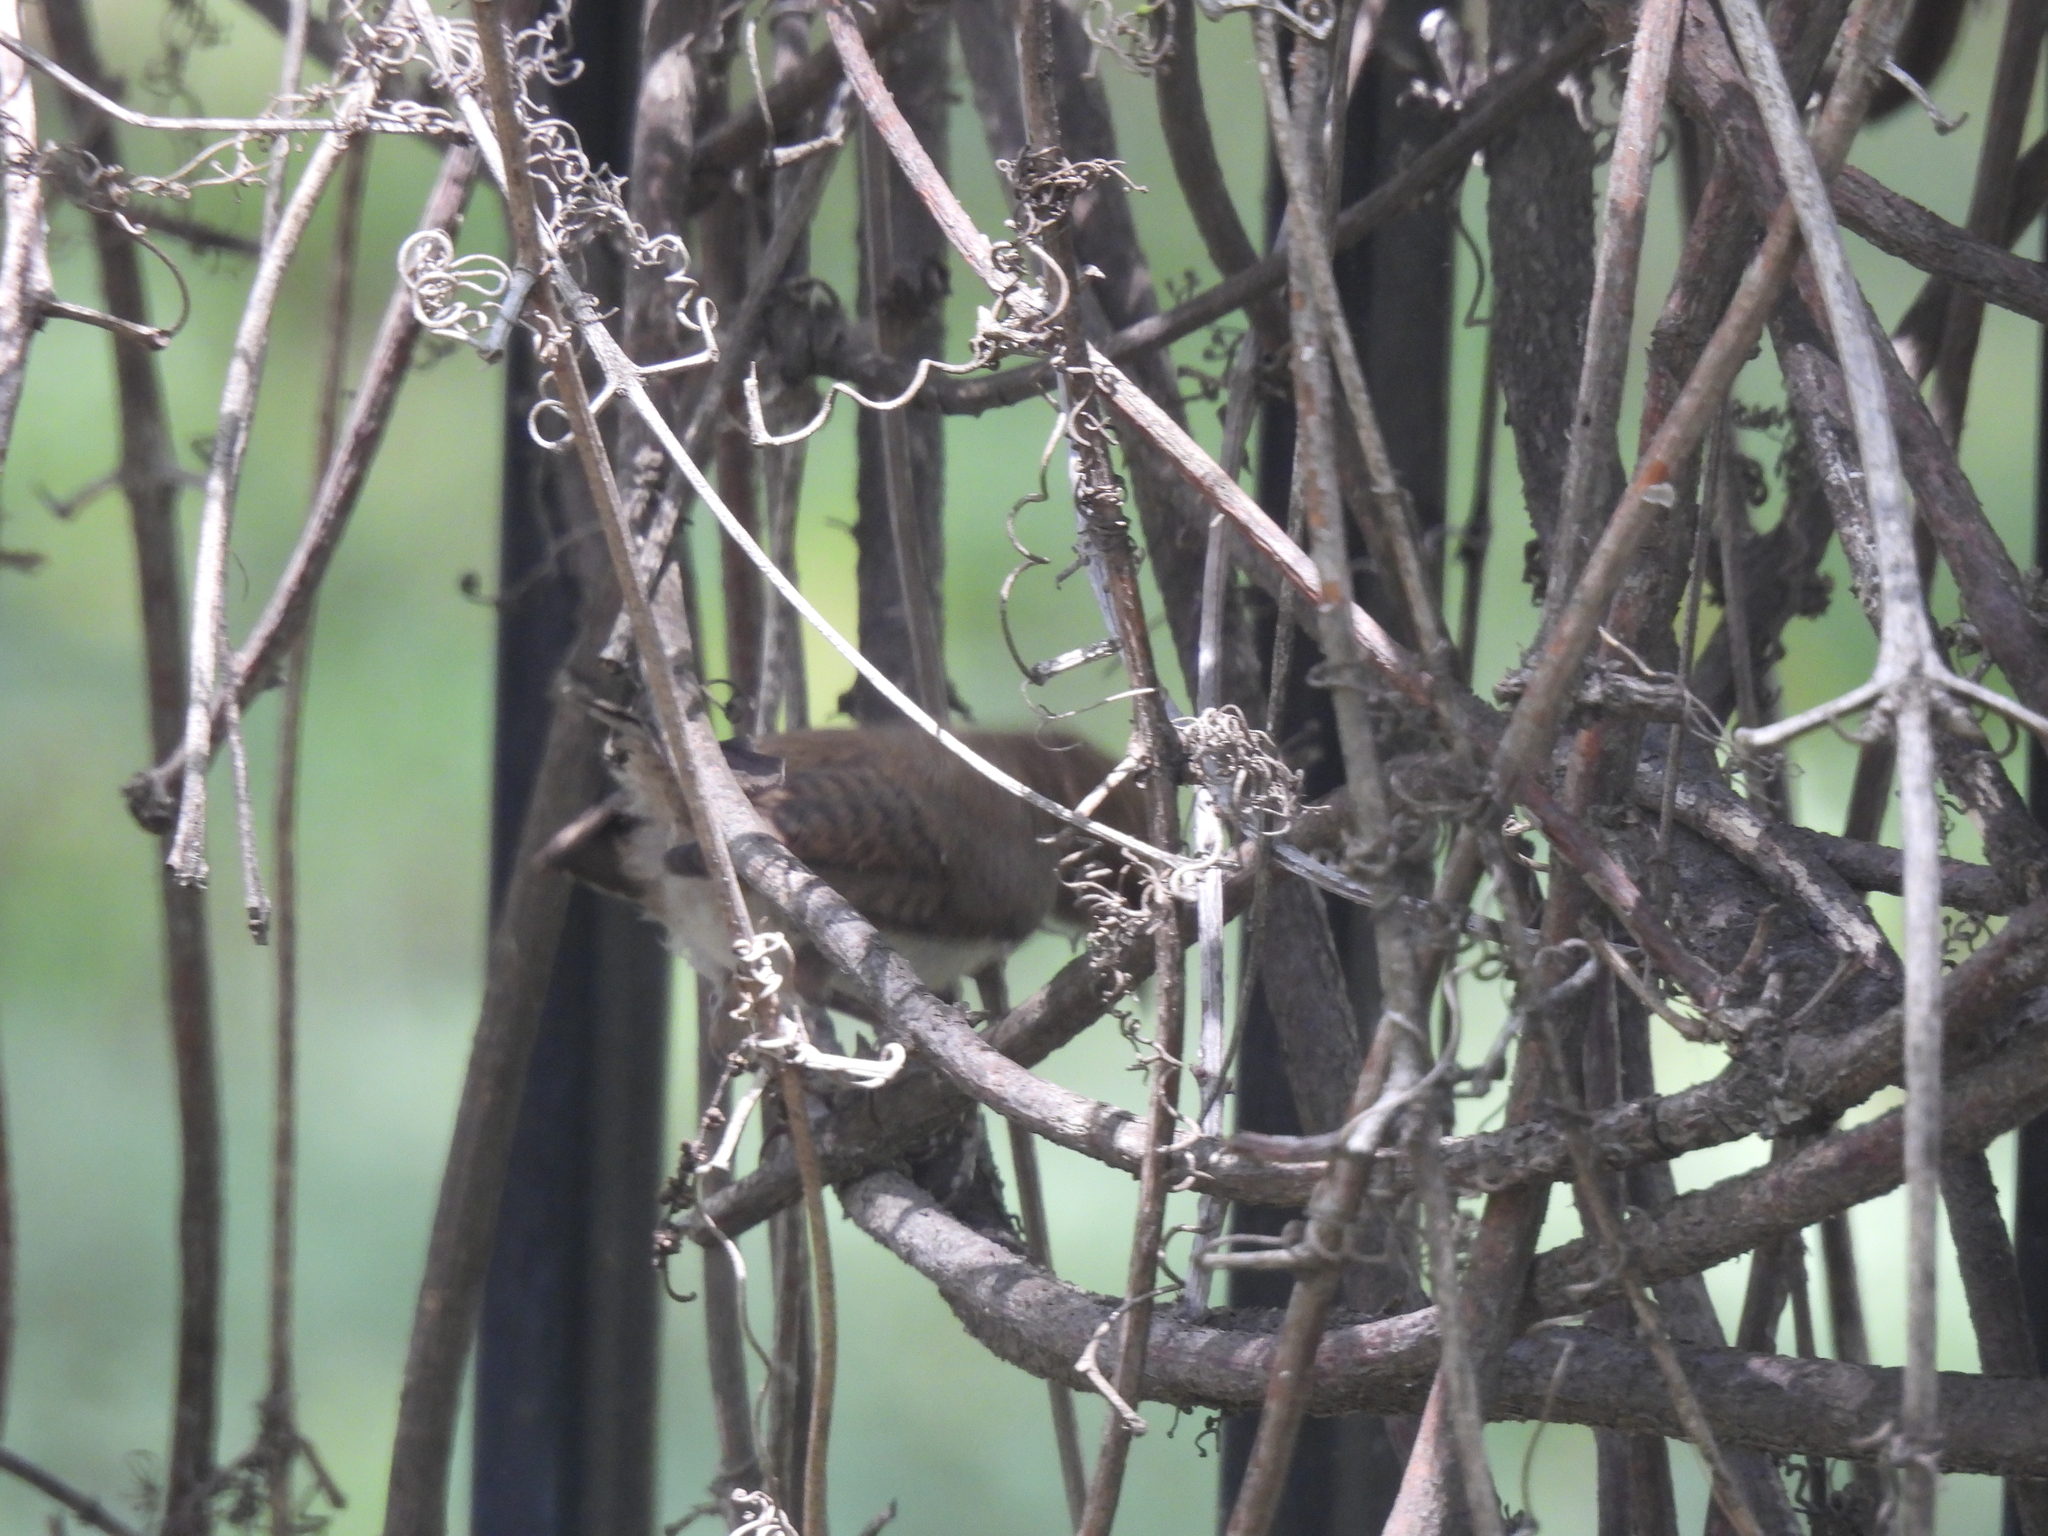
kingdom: Animalia
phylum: Chordata
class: Aves
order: Passeriformes
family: Troglodytidae
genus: Thryomanes
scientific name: Thryomanes bewickii
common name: Bewick's wren
